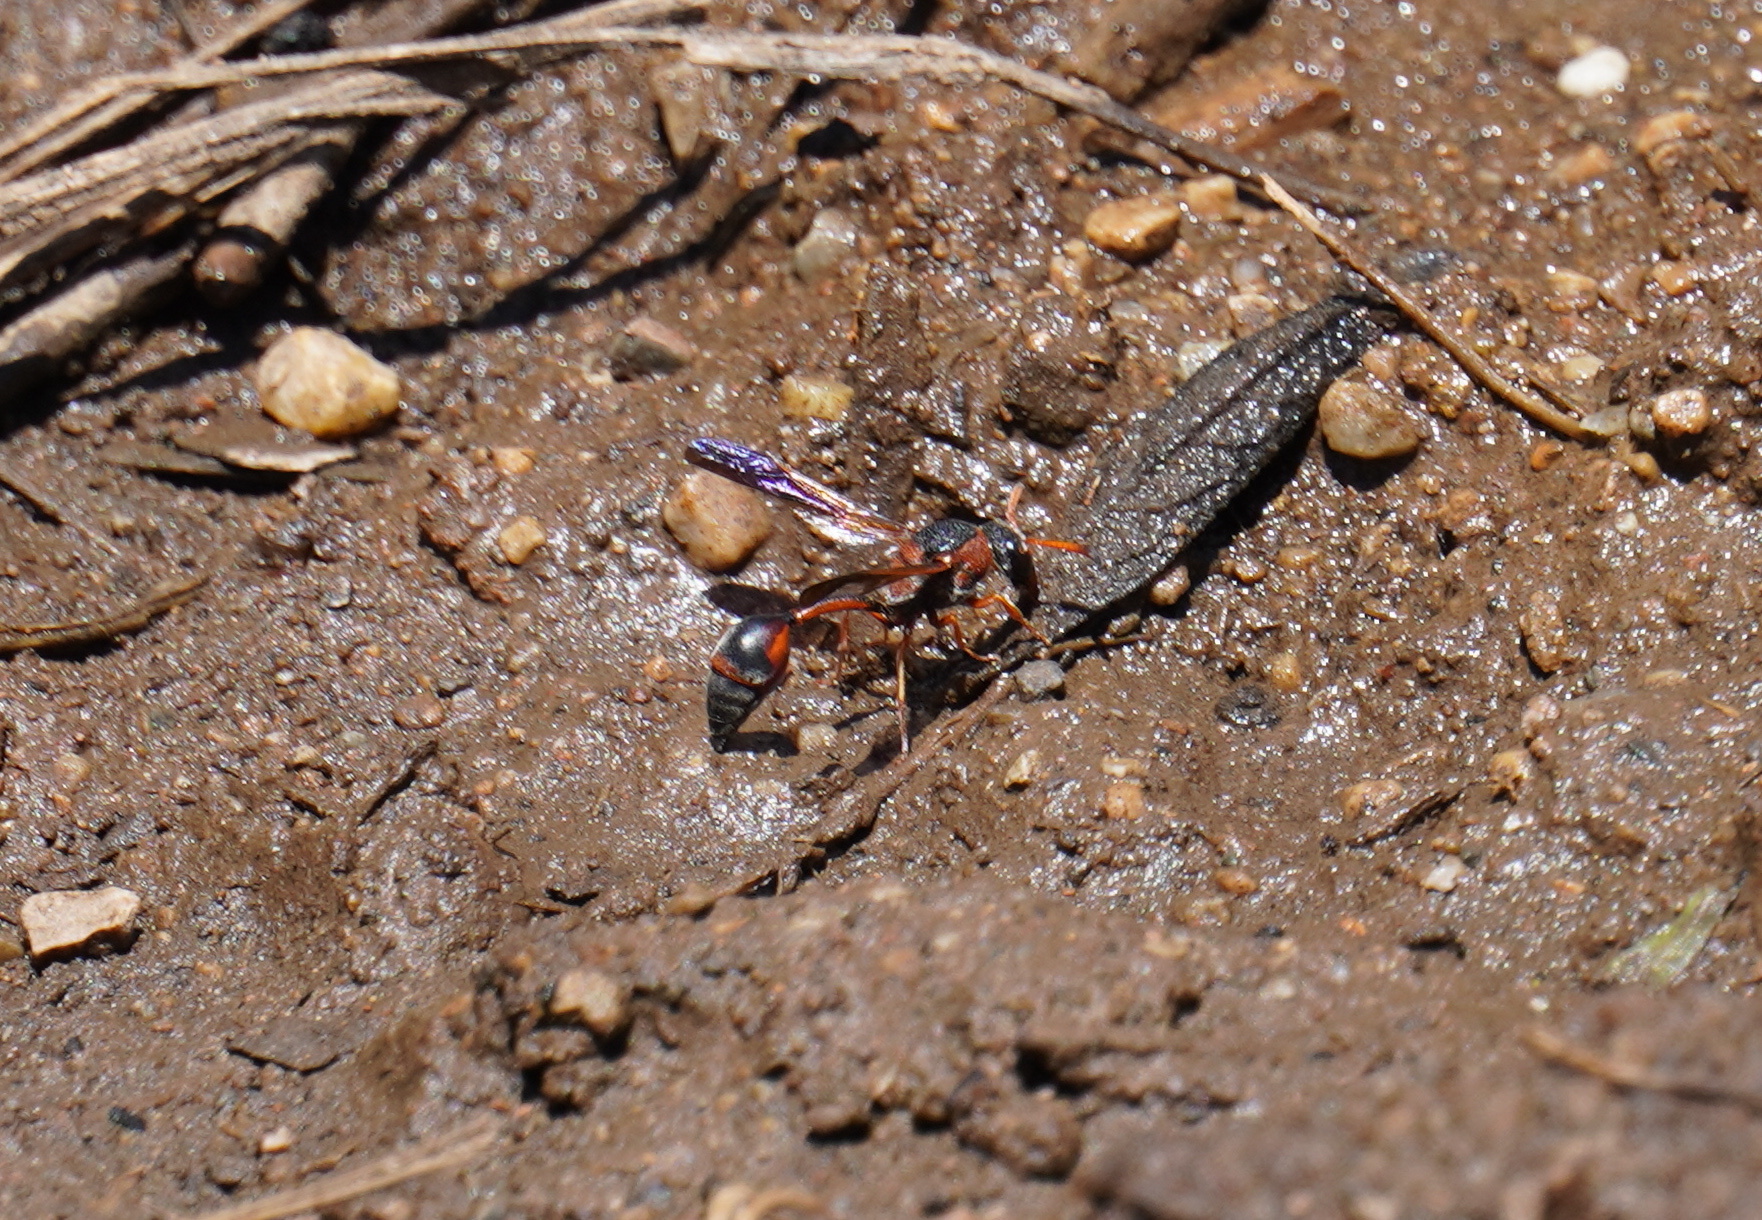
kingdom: Animalia
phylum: Arthropoda
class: Insecta
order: Hymenoptera
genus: Zetheumenidion
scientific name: Zetheumenidion
